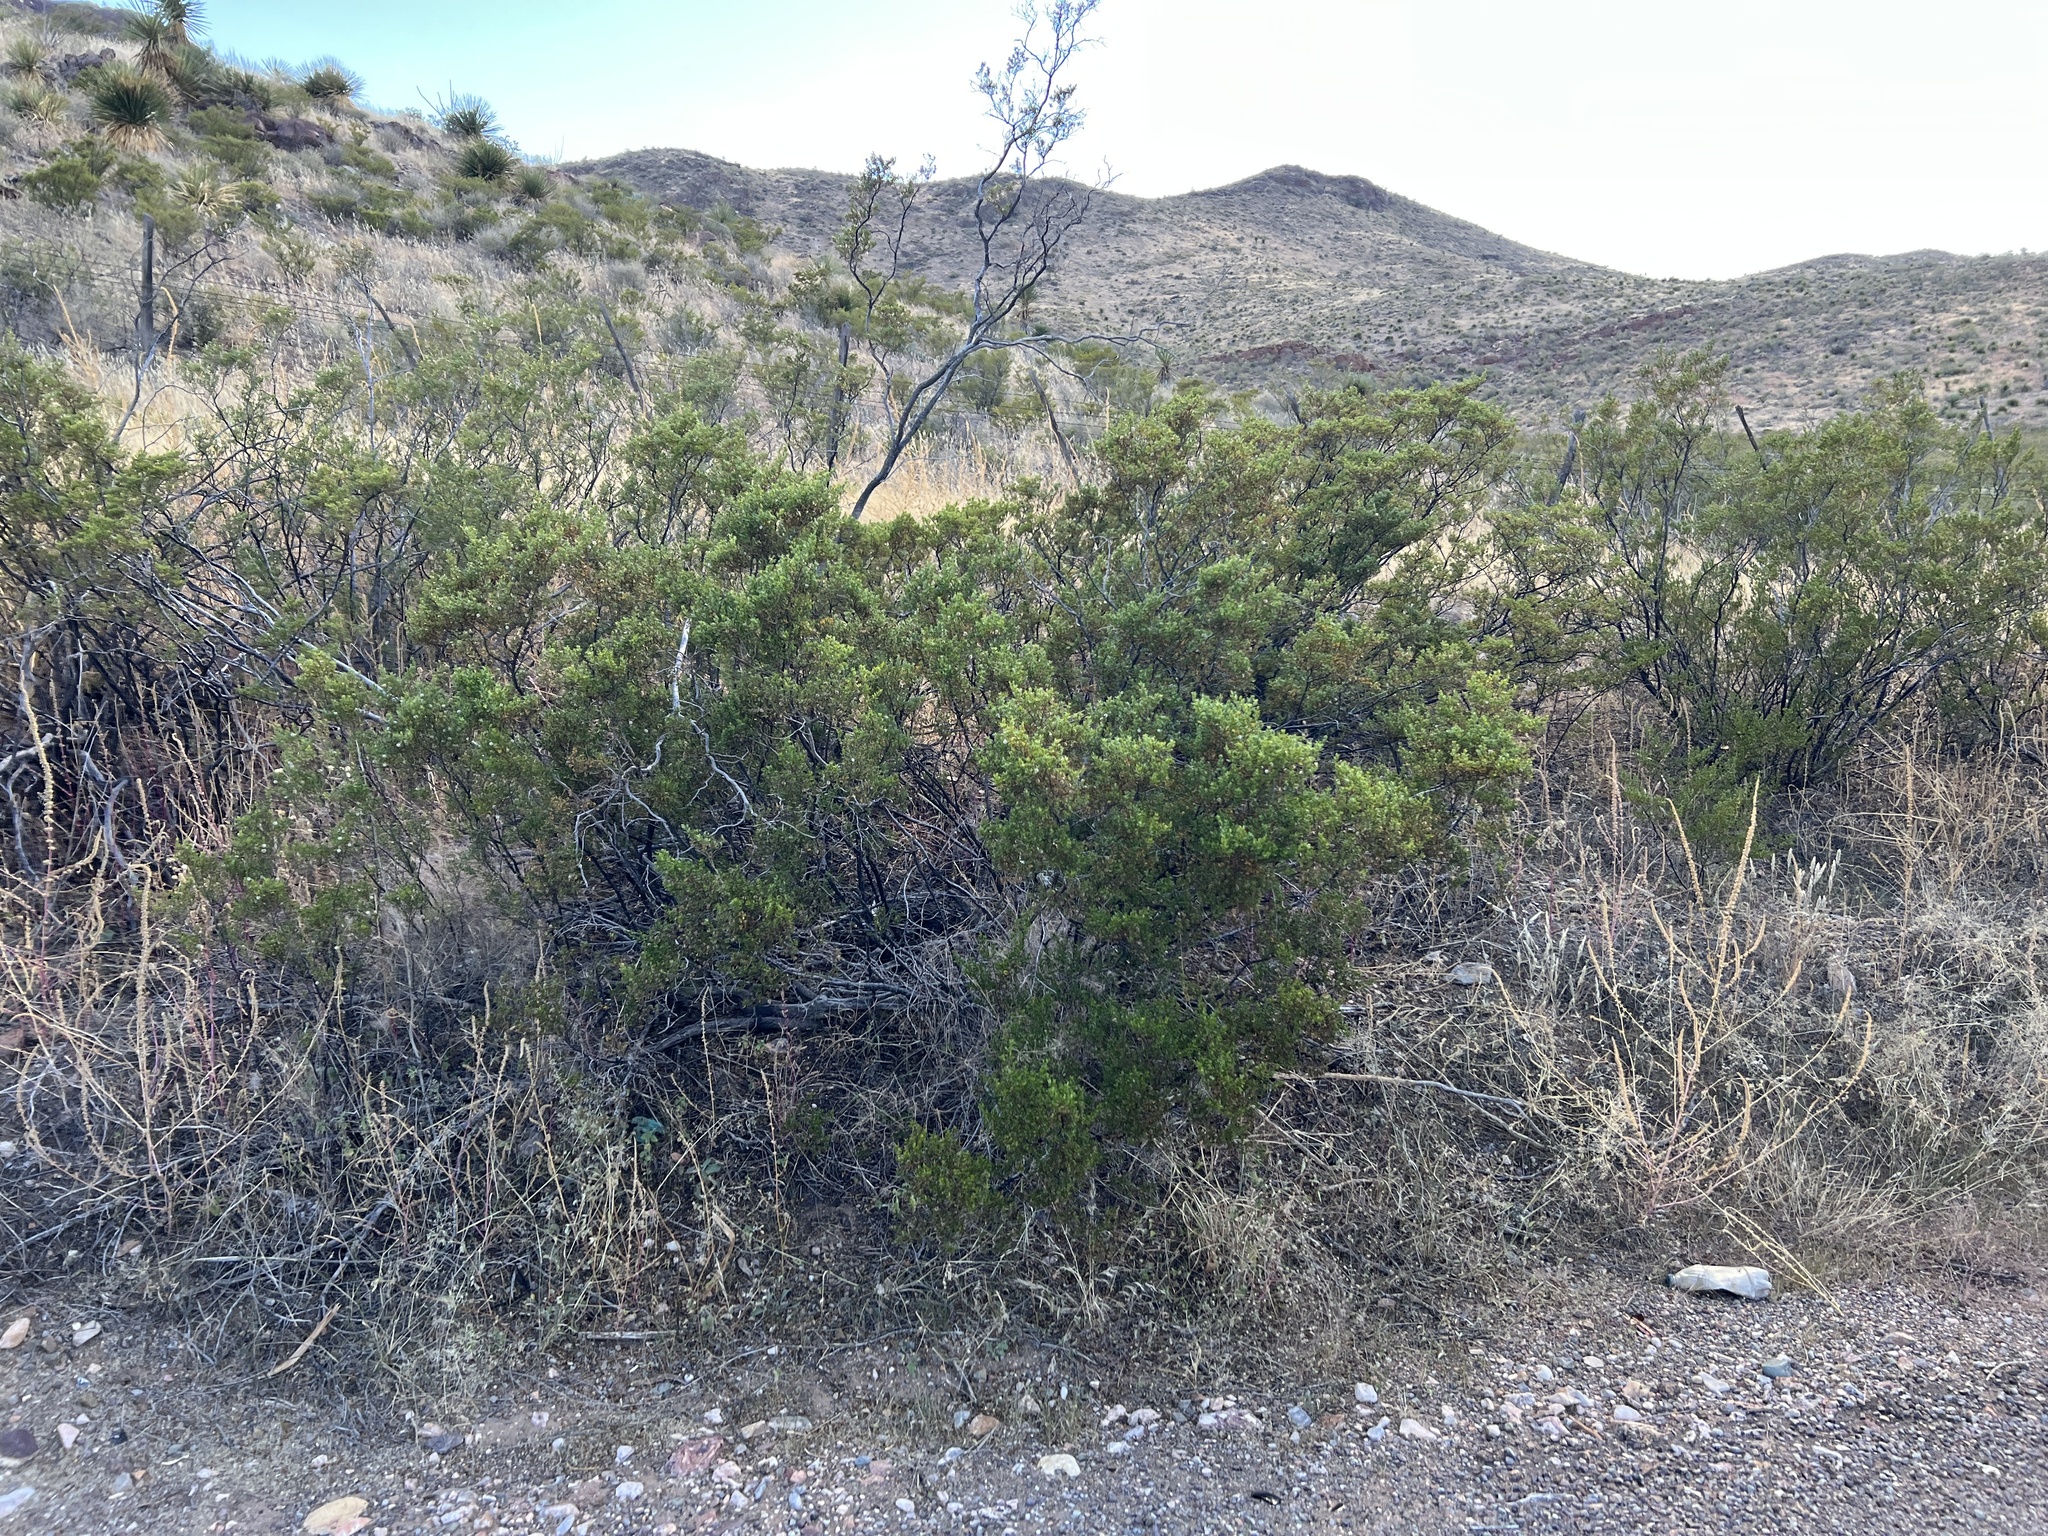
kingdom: Plantae
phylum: Tracheophyta
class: Magnoliopsida
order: Zygophyllales
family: Zygophyllaceae
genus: Larrea
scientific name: Larrea tridentata
